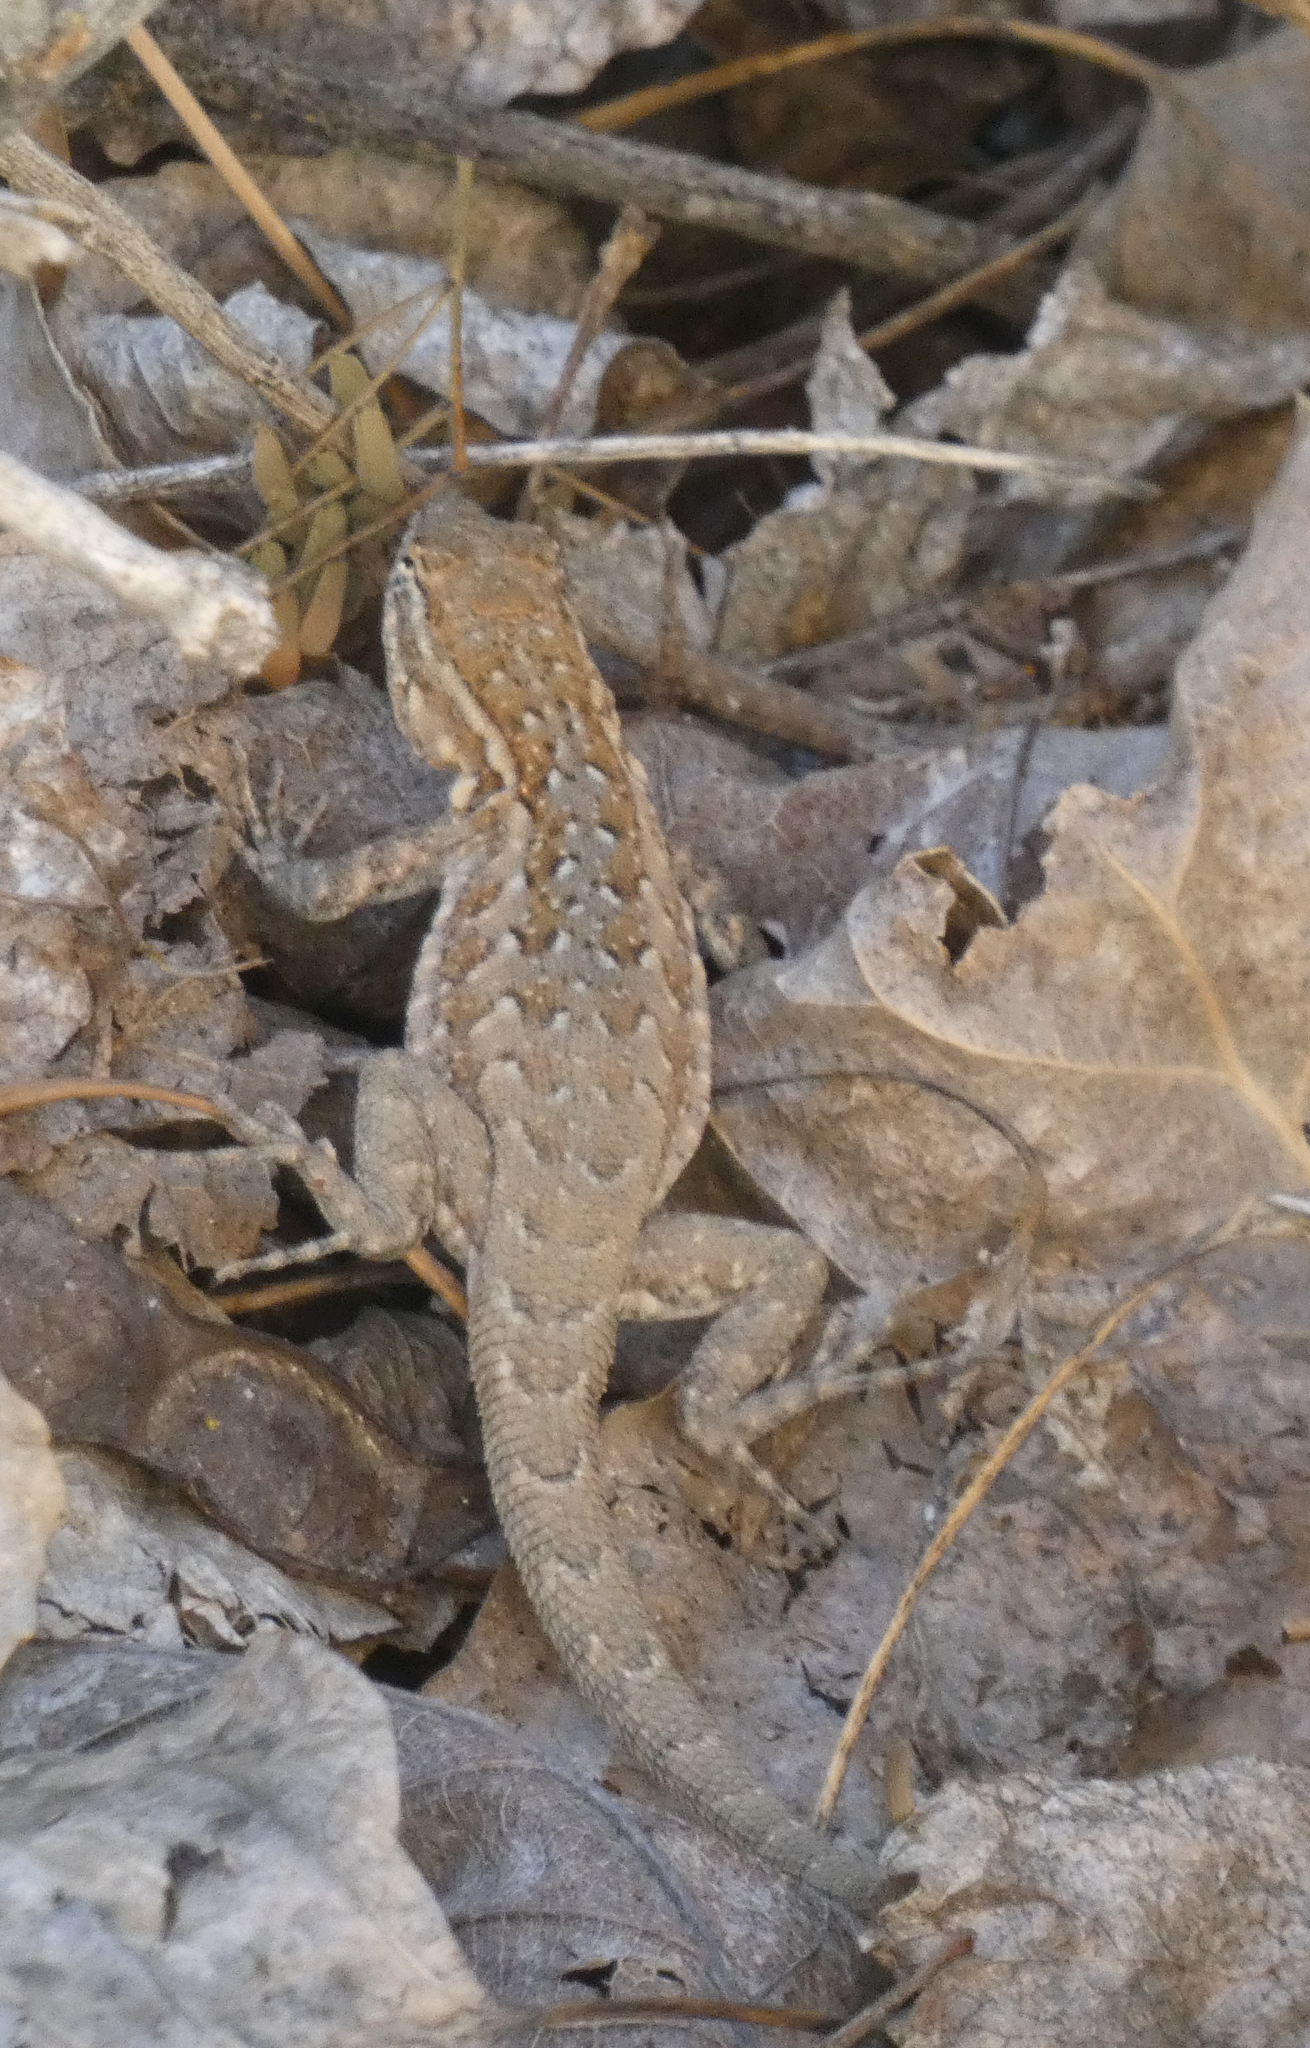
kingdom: Animalia
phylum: Chordata
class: Squamata
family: Phrynosomatidae
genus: Uta
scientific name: Uta stansburiana
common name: Side-blotched lizard
